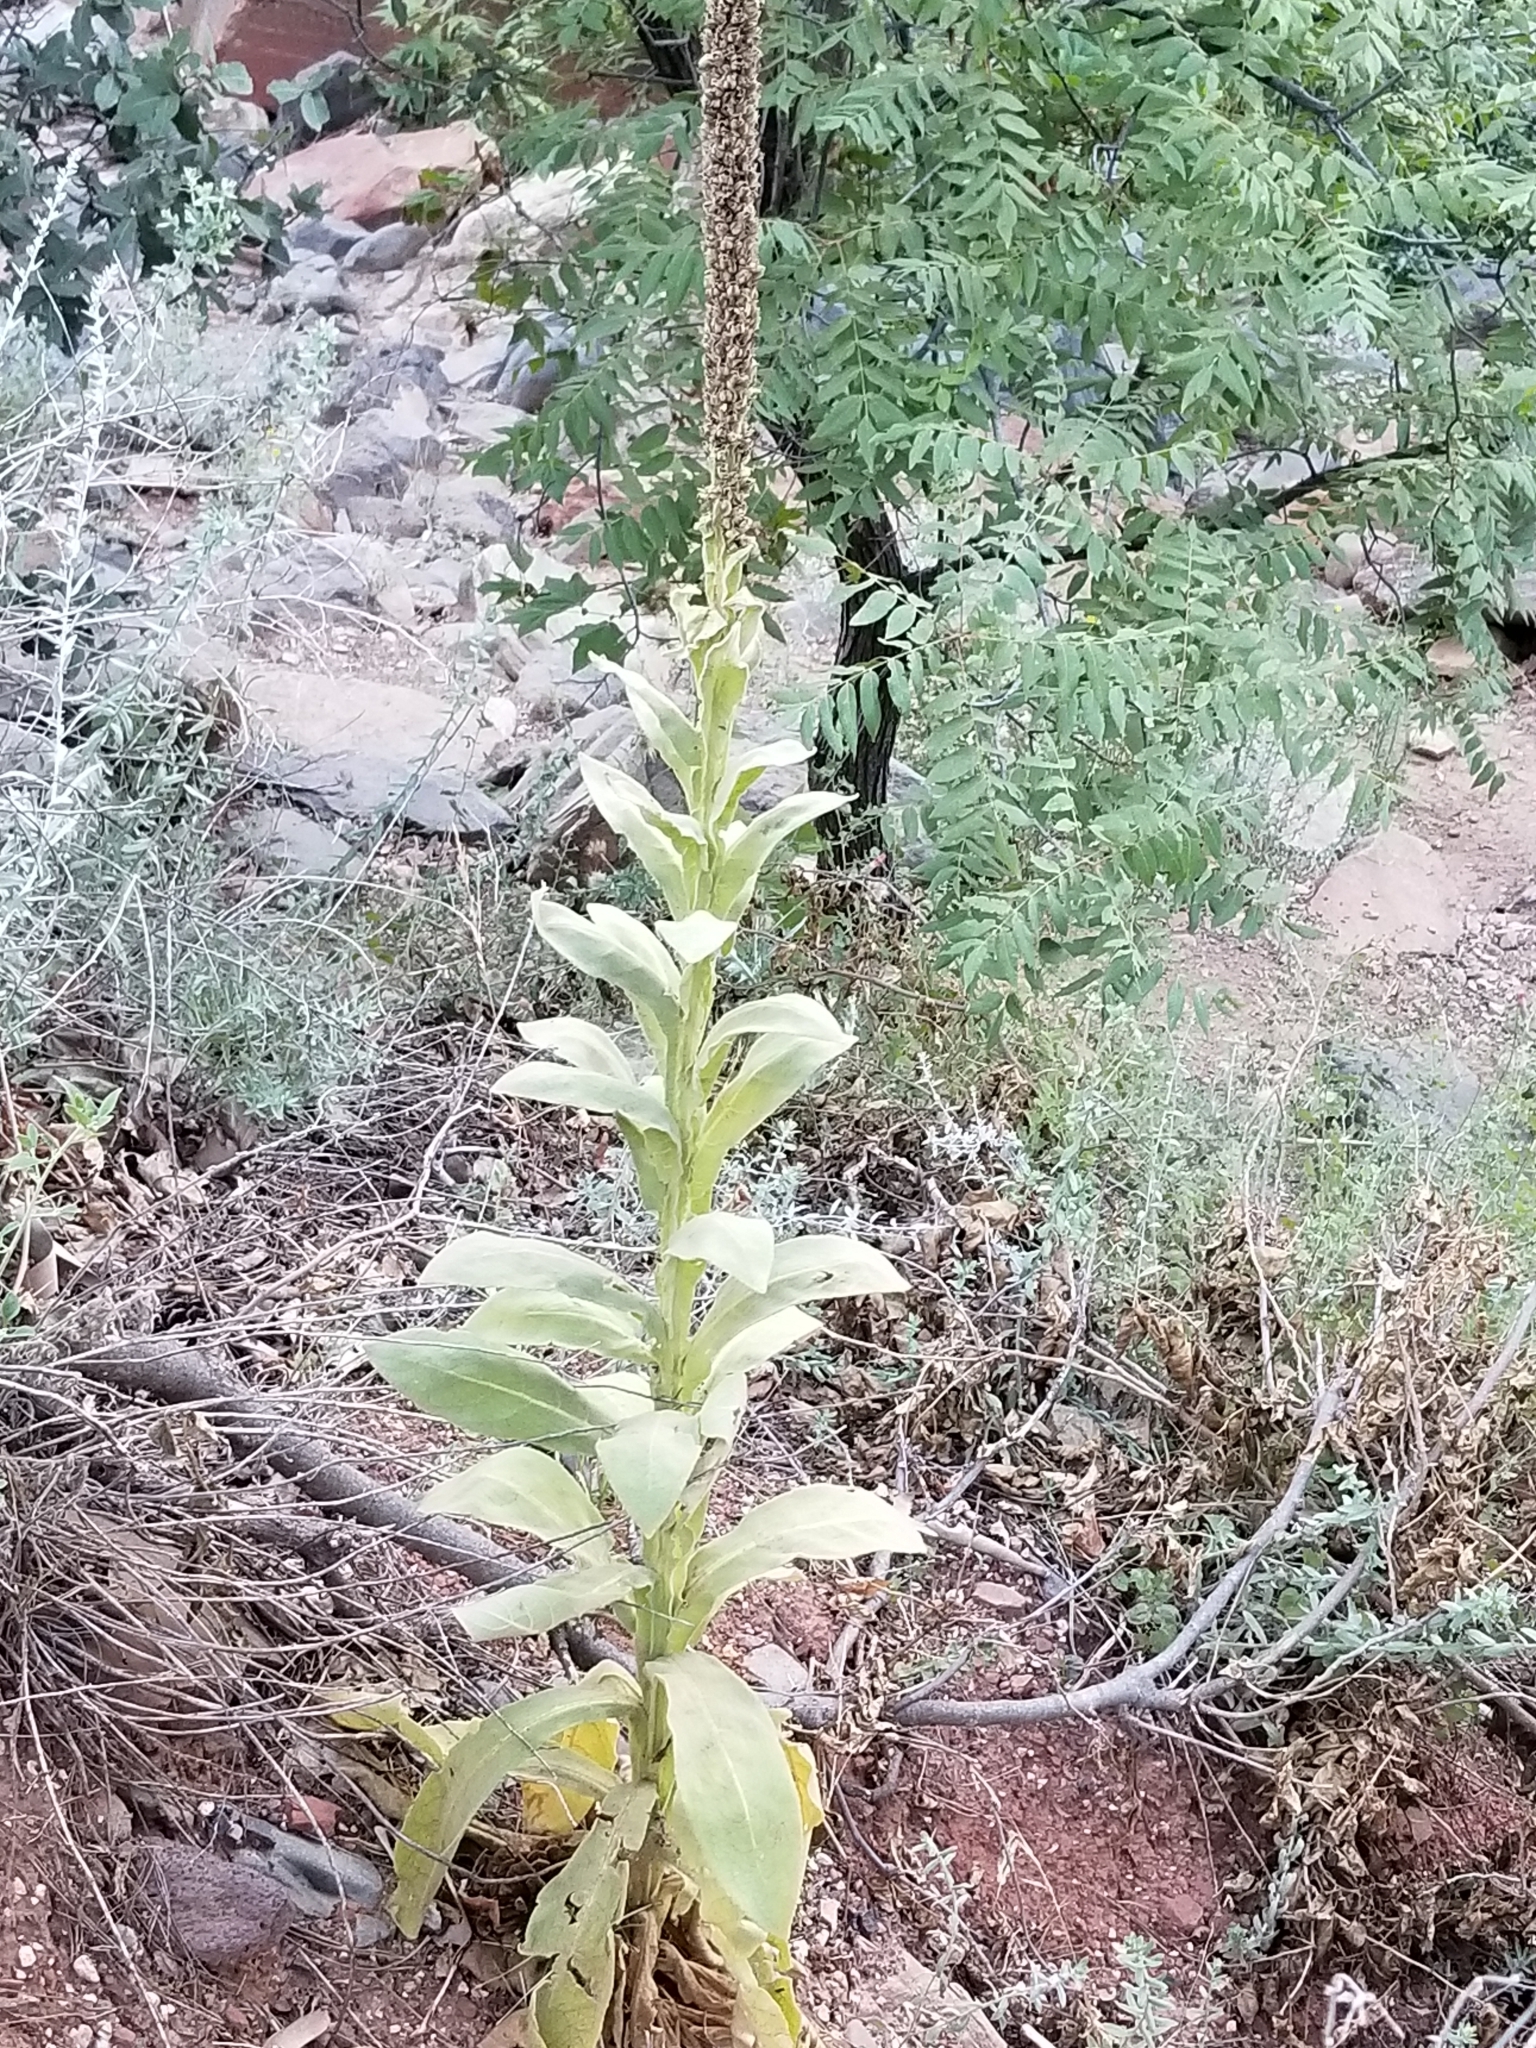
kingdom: Plantae
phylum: Tracheophyta
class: Magnoliopsida
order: Lamiales
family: Scrophulariaceae
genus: Verbascum
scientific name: Verbascum thapsus
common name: Common mullein
